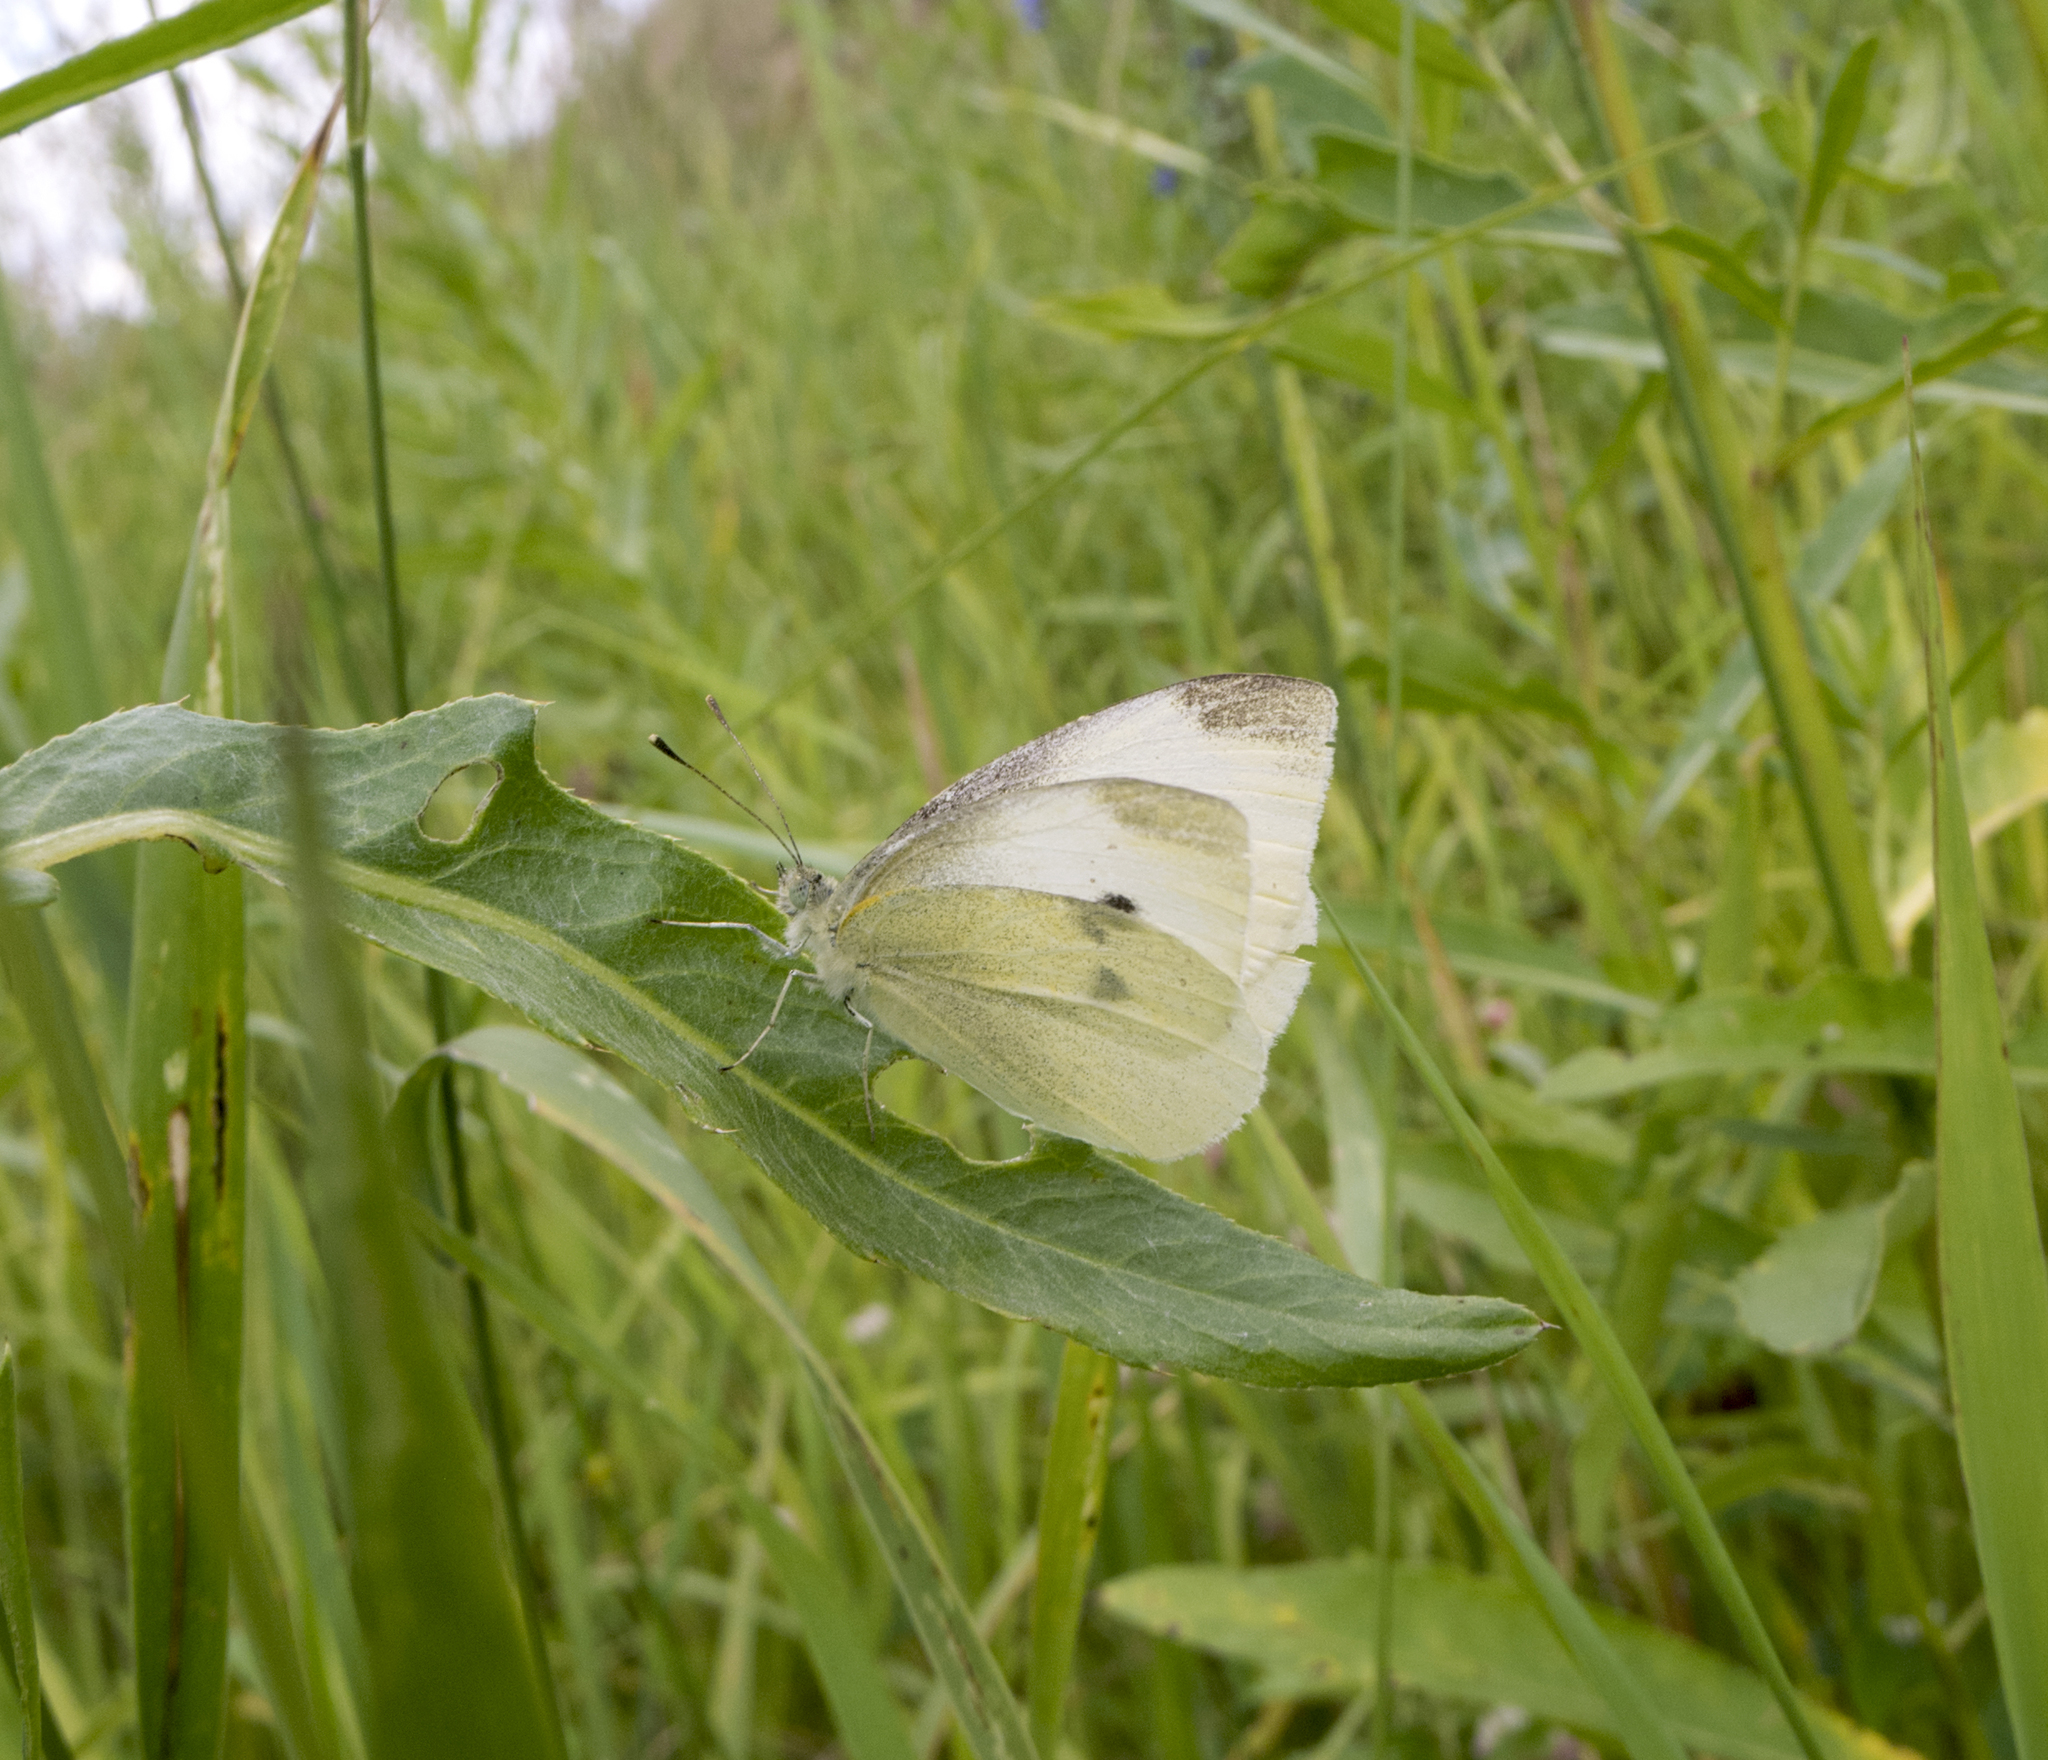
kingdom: Animalia
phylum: Arthropoda
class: Insecta
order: Lepidoptera
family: Pieridae
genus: Pieris
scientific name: Pieris rapae
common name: Small white
